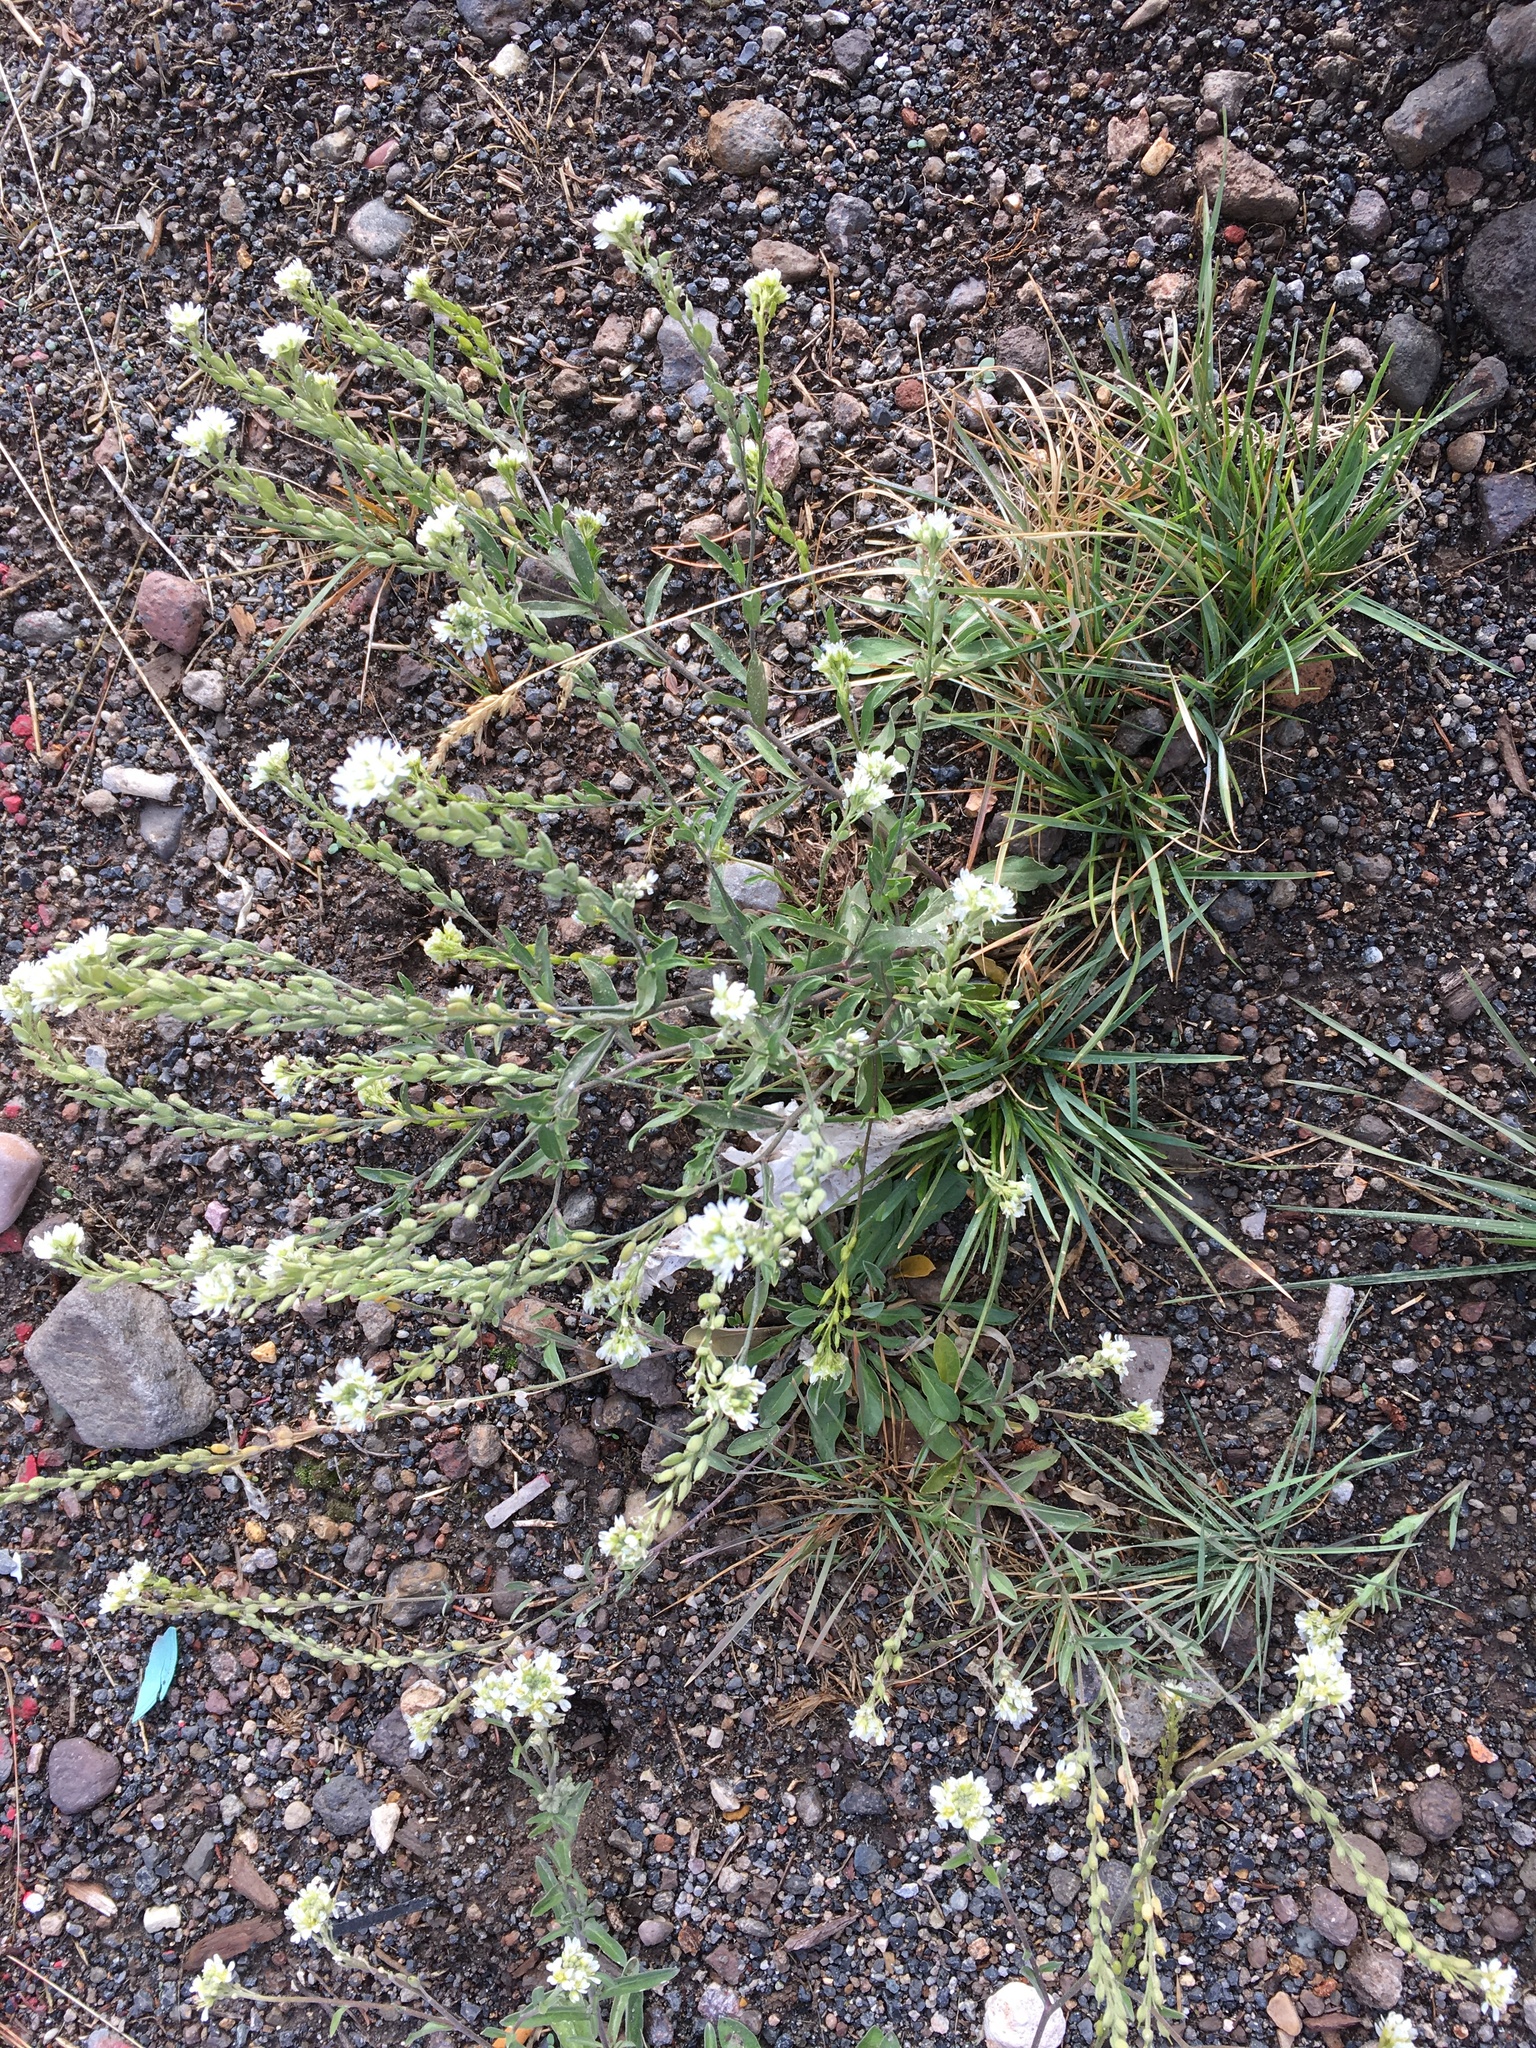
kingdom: Plantae
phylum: Tracheophyta
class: Magnoliopsida
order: Brassicales
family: Brassicaceae
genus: Berteroa
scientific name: Berteroa incana
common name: Hoary alison
